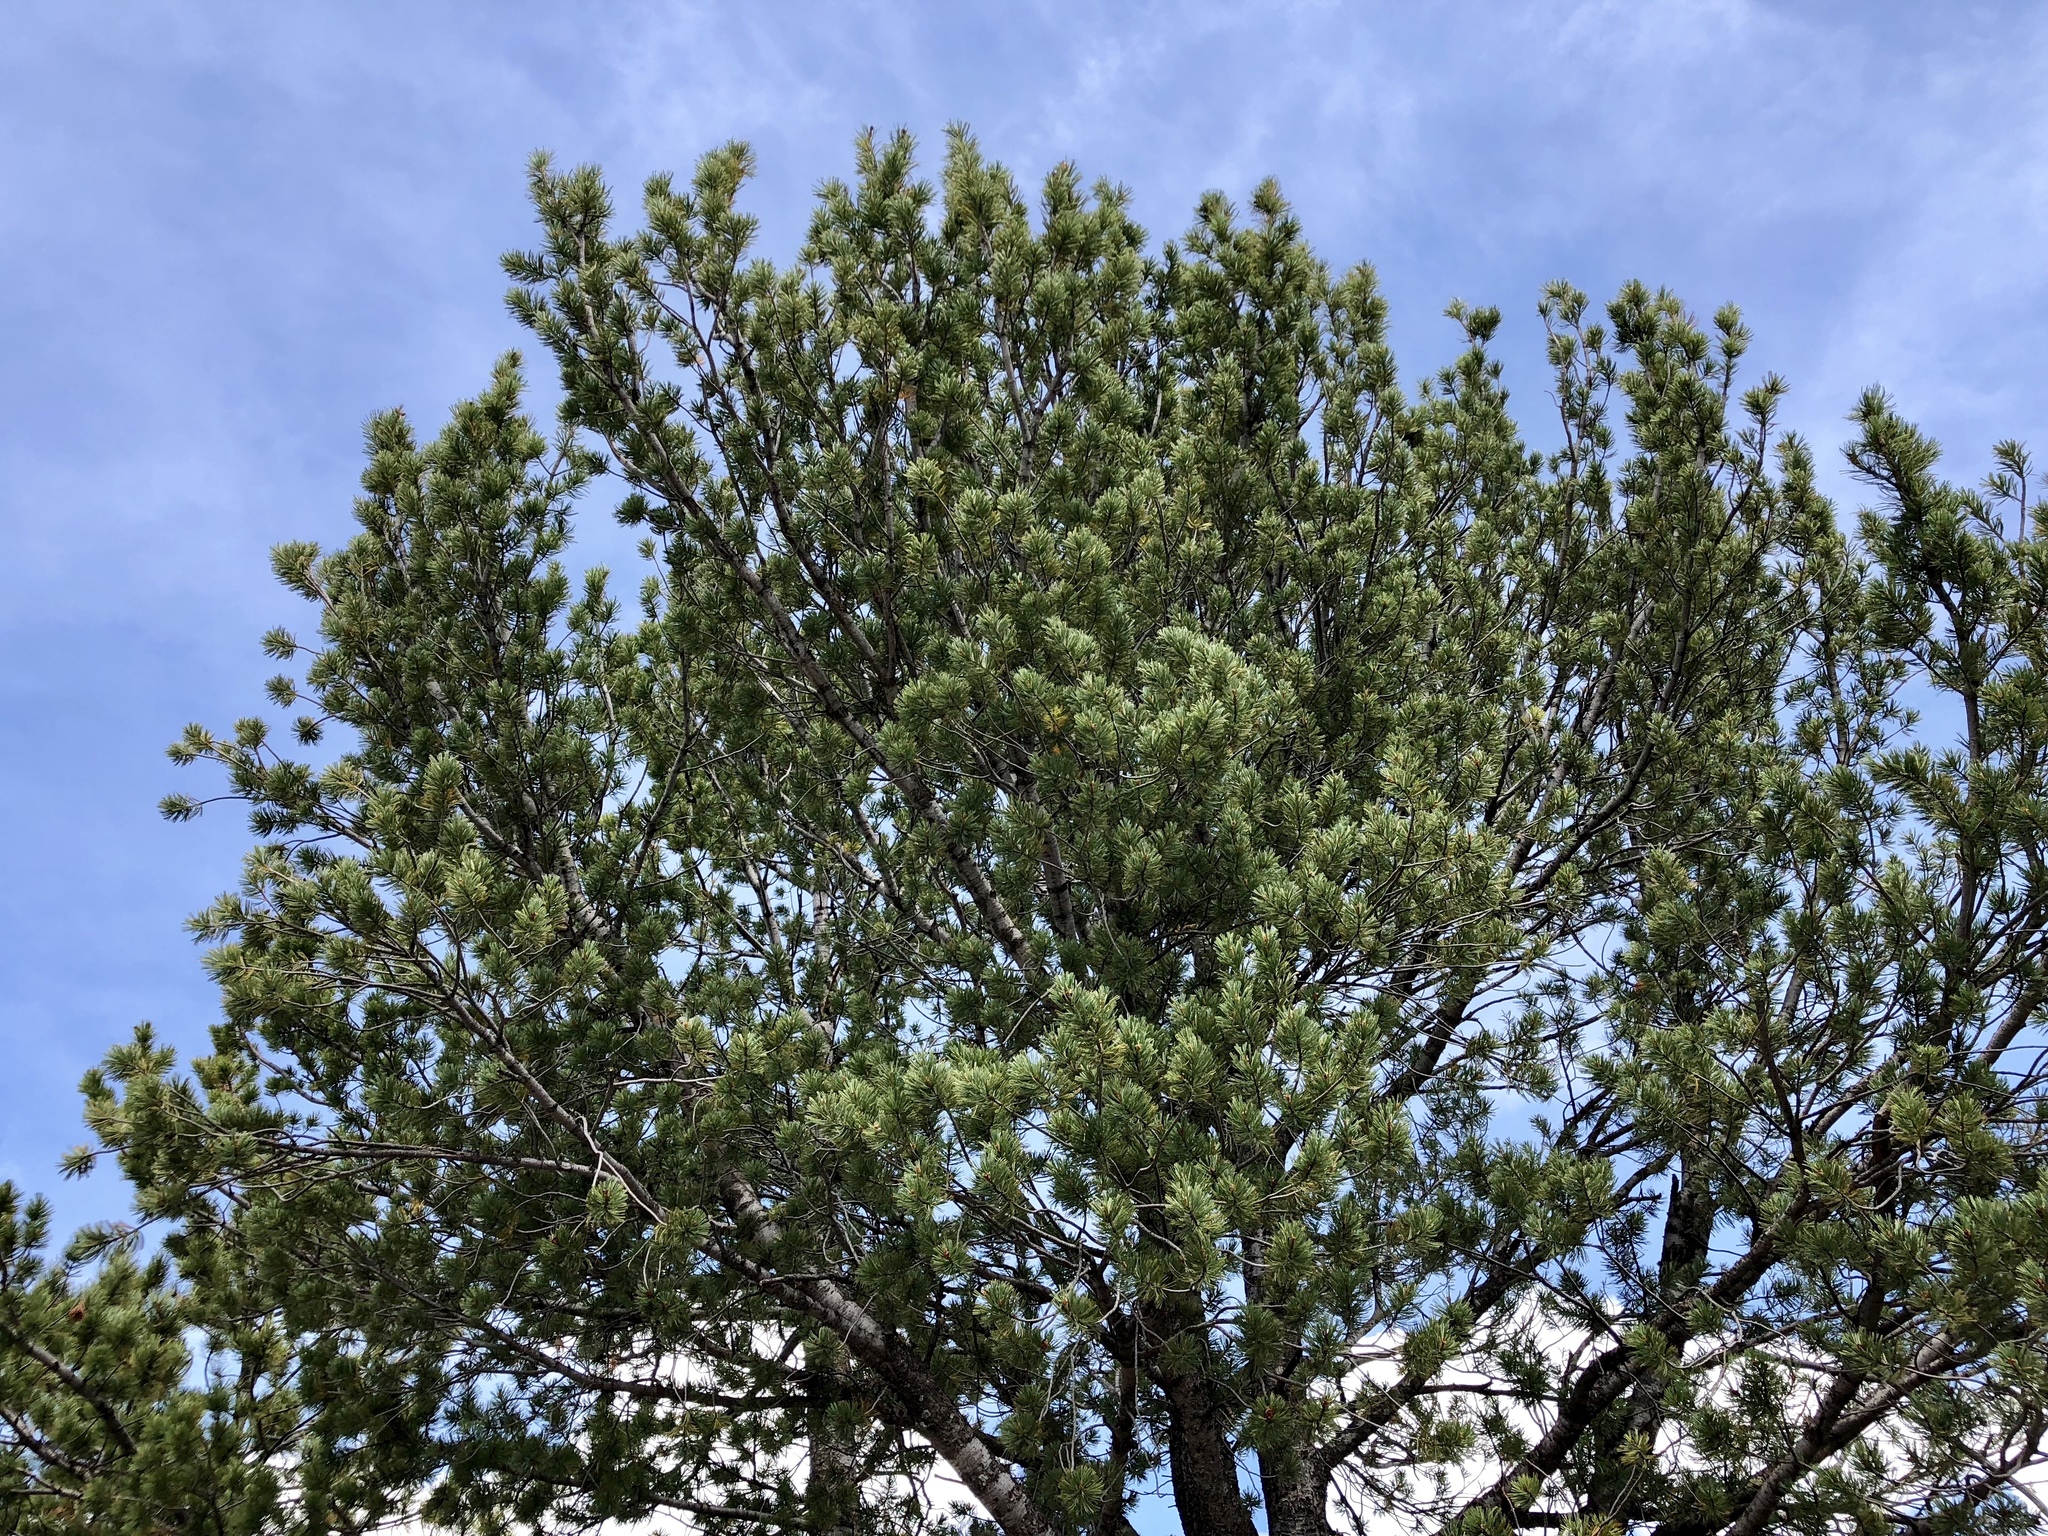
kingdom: Plantae
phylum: Tracheophyta
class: Pinopsida
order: Pinales
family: Pinaceae
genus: Pinus
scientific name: Pinus flexilis
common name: Limber pine
